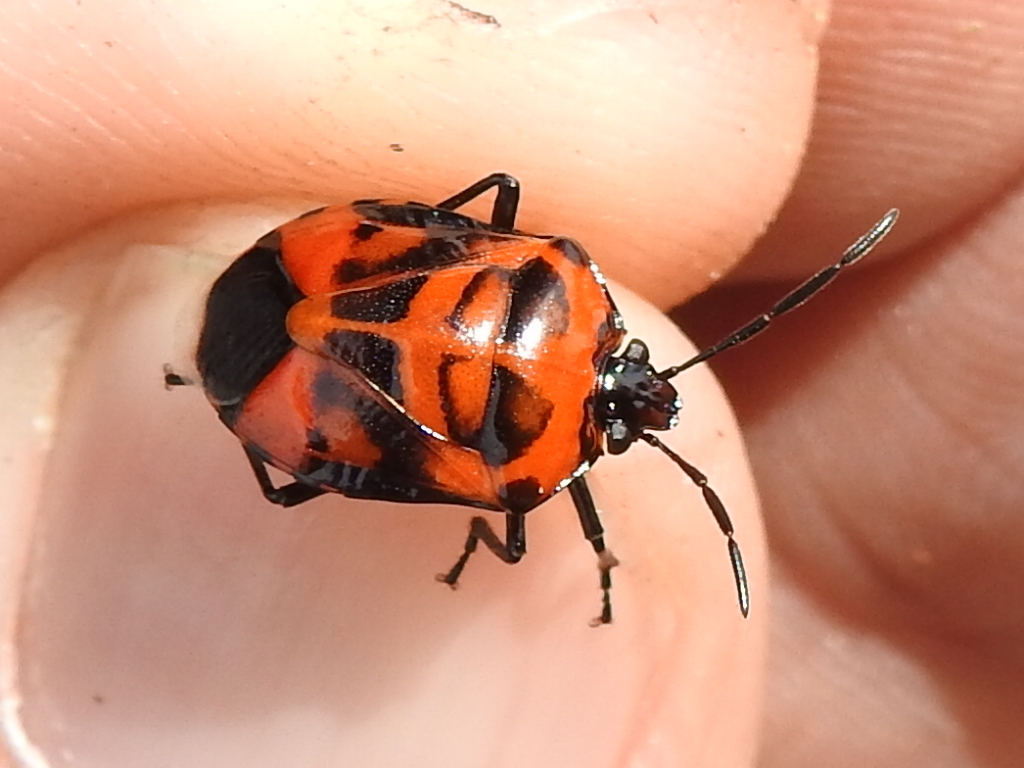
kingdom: Animalia
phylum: Arthropoda
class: Insecta
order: Hemiptera
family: Pentatomidae
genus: Arocera
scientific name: Arocera placens
